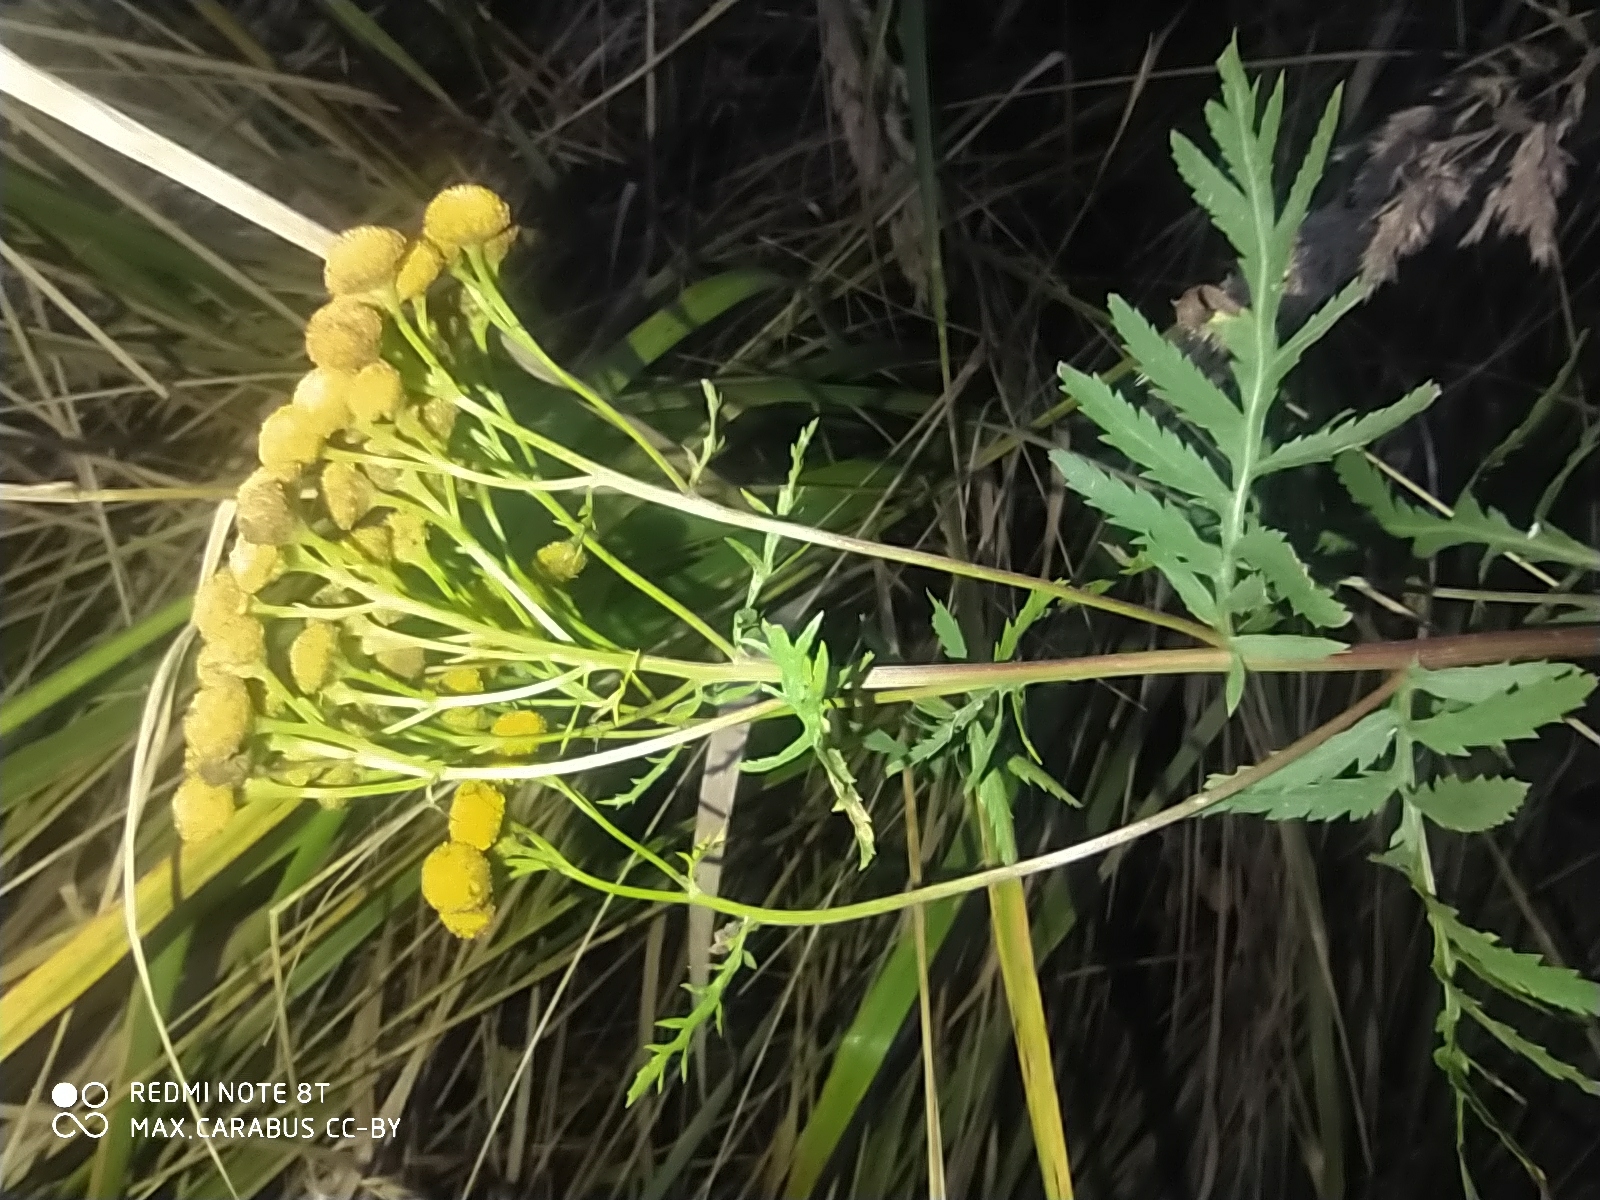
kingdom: Plantae
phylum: Tracheophyta
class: Magnoliopsida
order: Asterales
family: Asteraceae
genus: Tanacetum
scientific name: Tanacetum vulgare
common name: Common tansy
